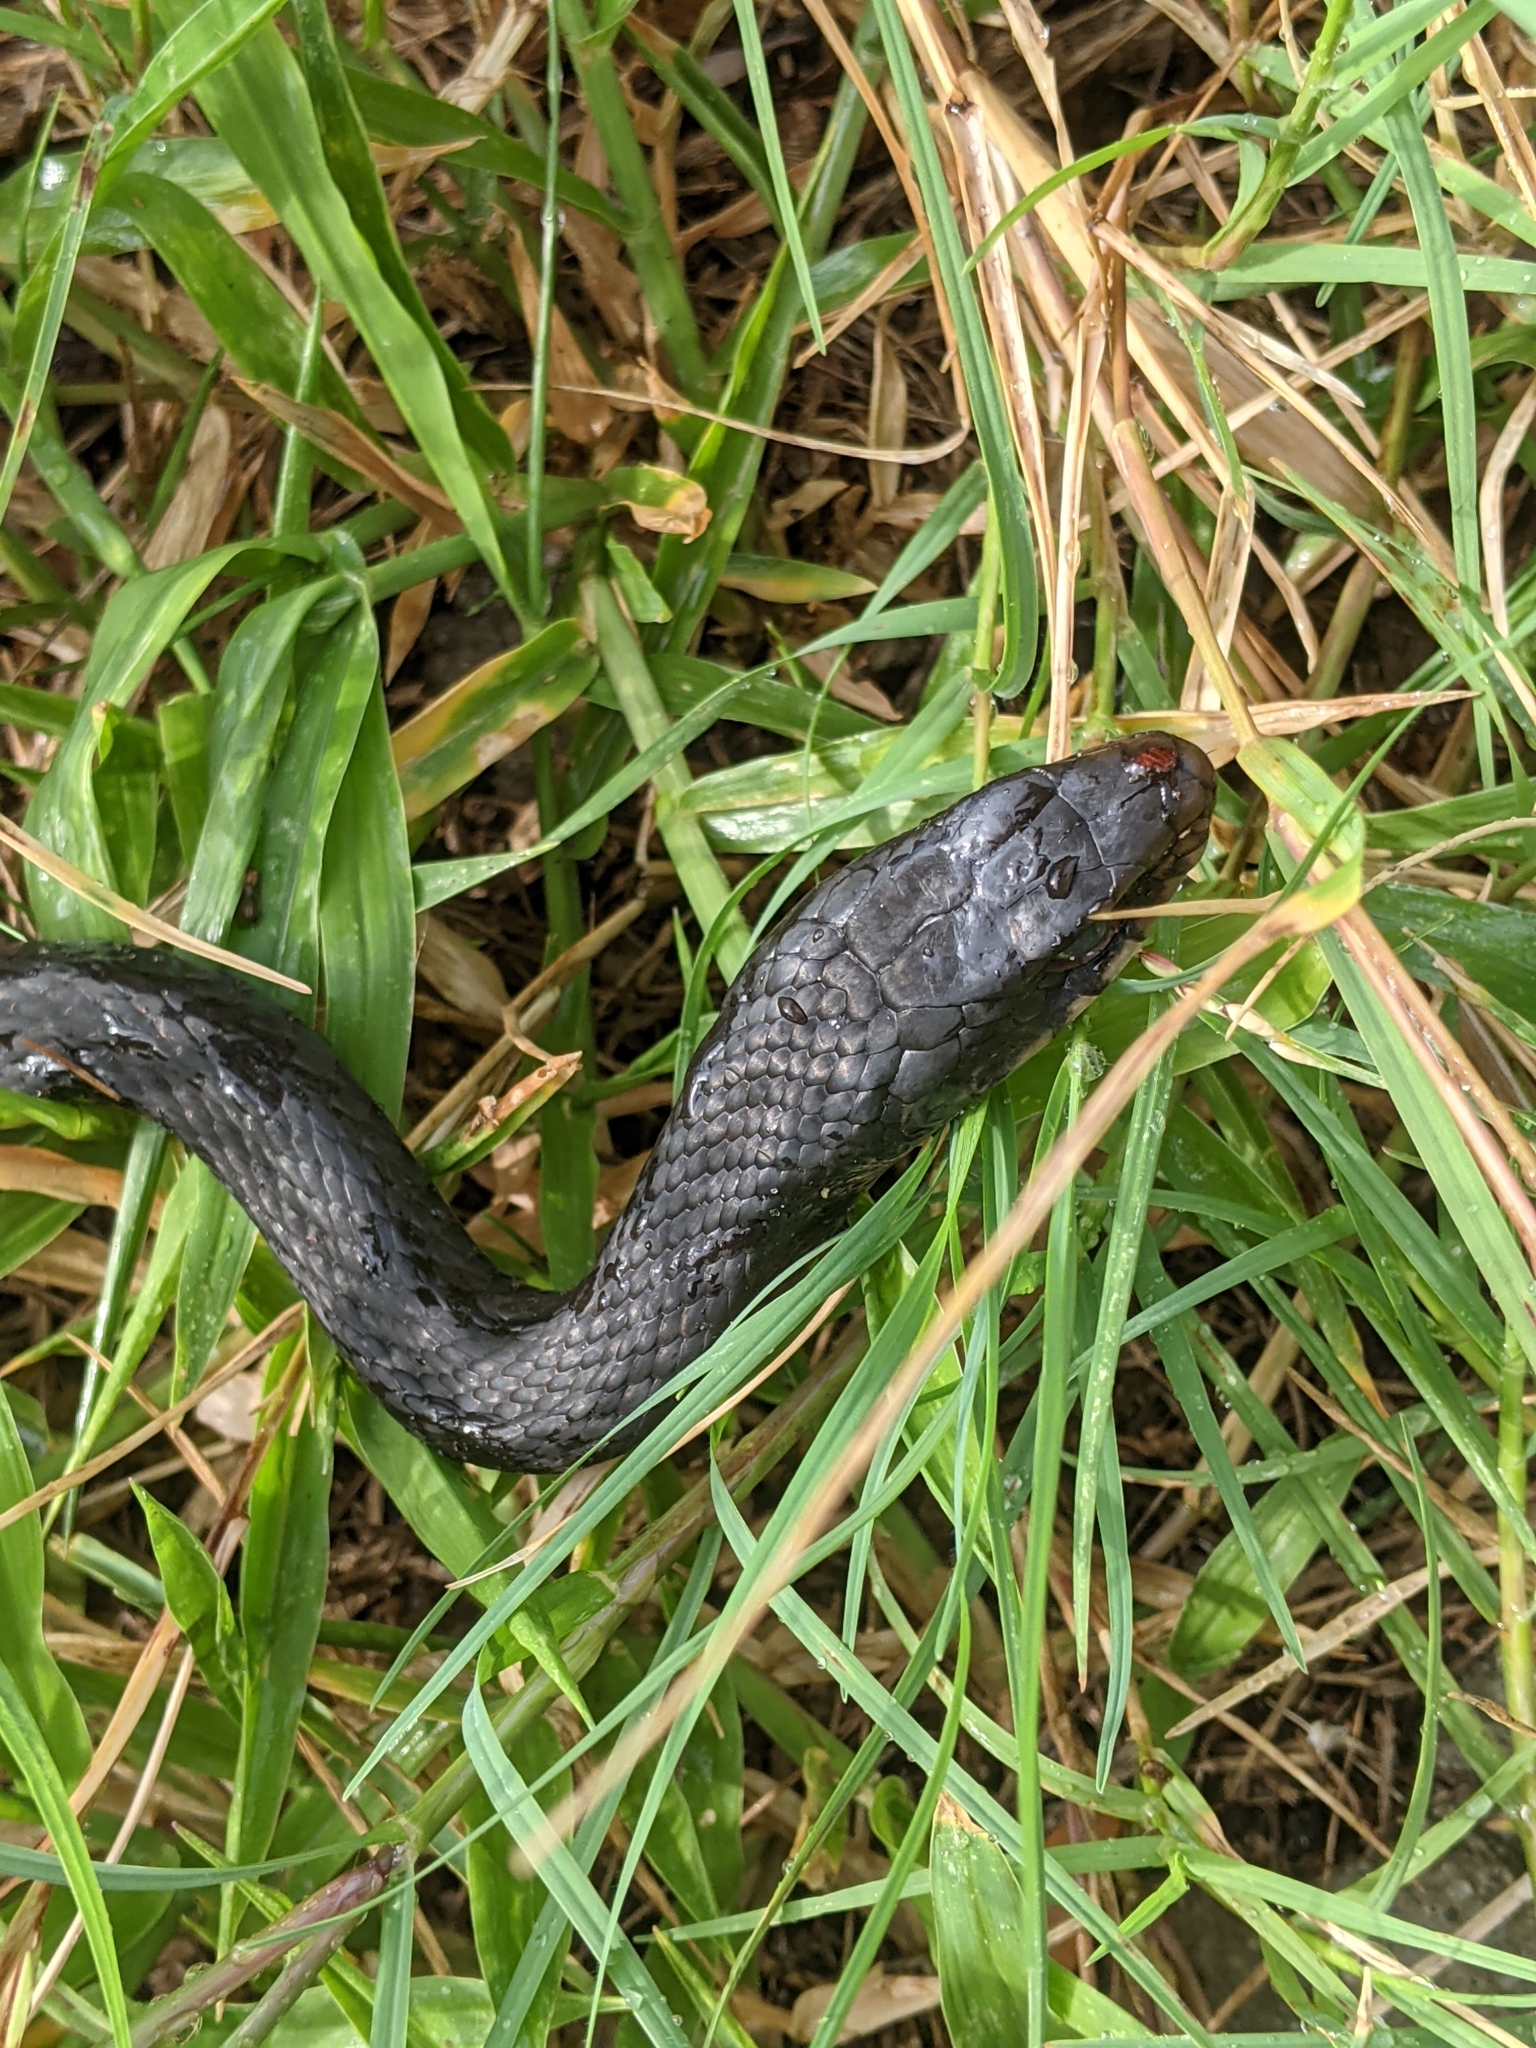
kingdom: Animalia
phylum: Chordata
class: Squamata
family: Colubridae
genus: Coluber
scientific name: Coluber constrictor
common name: Eastern racer
